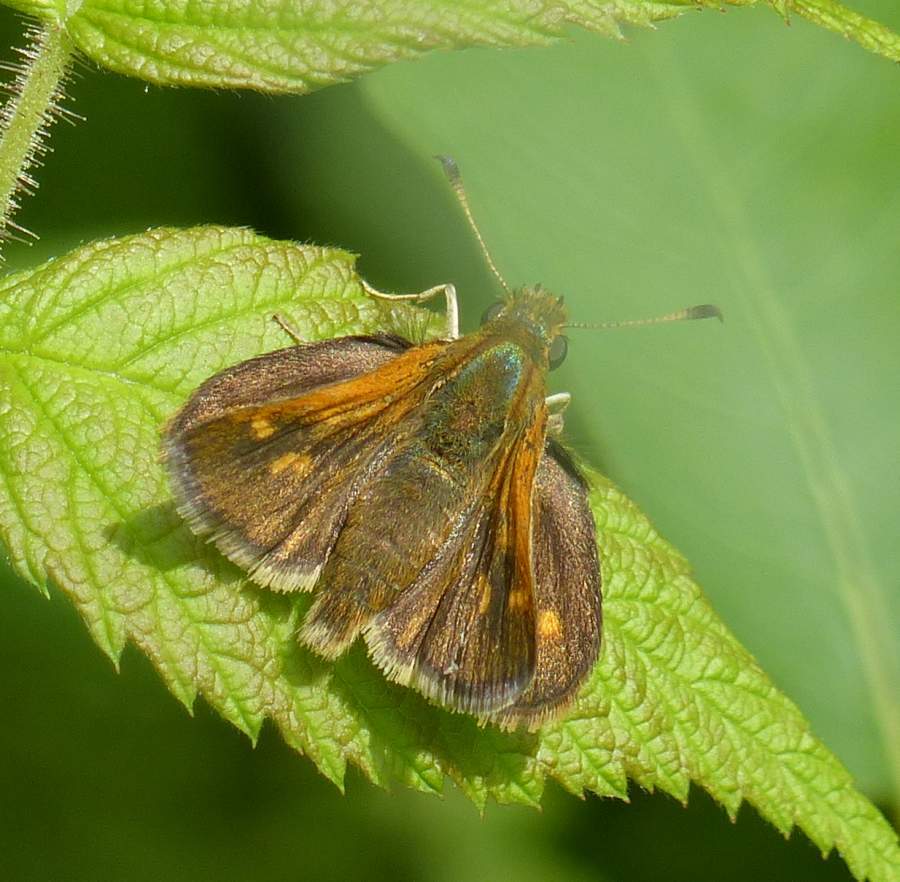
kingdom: Animalia
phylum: Arthropoda
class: Insecta
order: Lepidoptera
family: Hesperiidae
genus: Polites
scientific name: Polites themistocles
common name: Tawny-edged skipper
